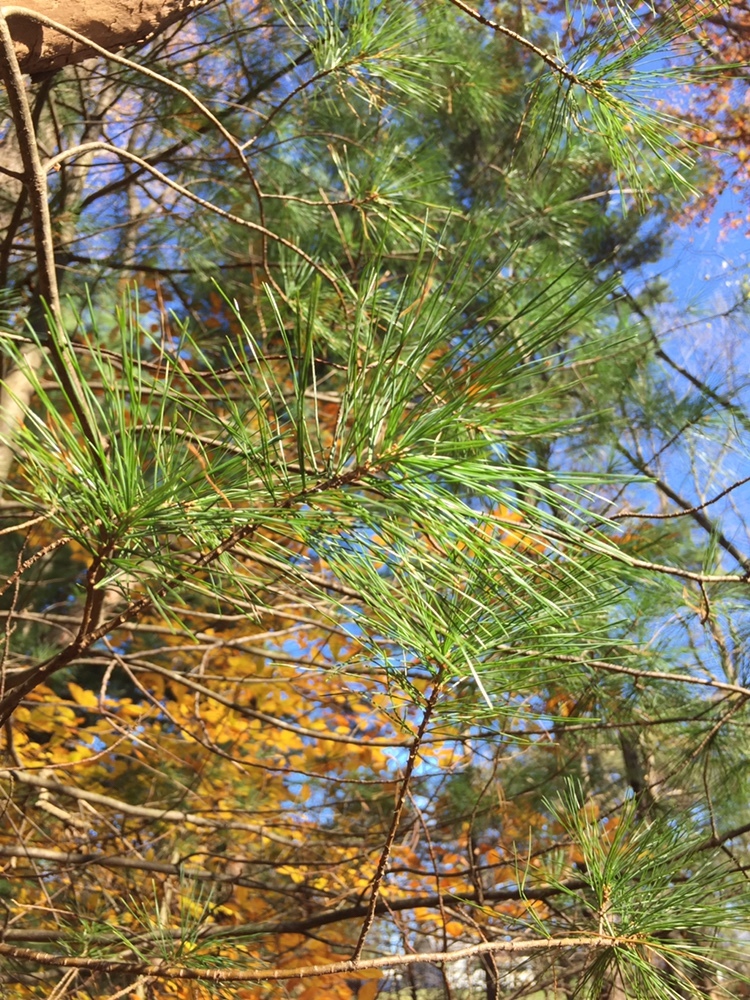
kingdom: Plantae
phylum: Tracheophyta
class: Pinopsida
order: Pinales
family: Pinaceae
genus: Pinus
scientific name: Pinus strobus
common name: Weymouth pine
